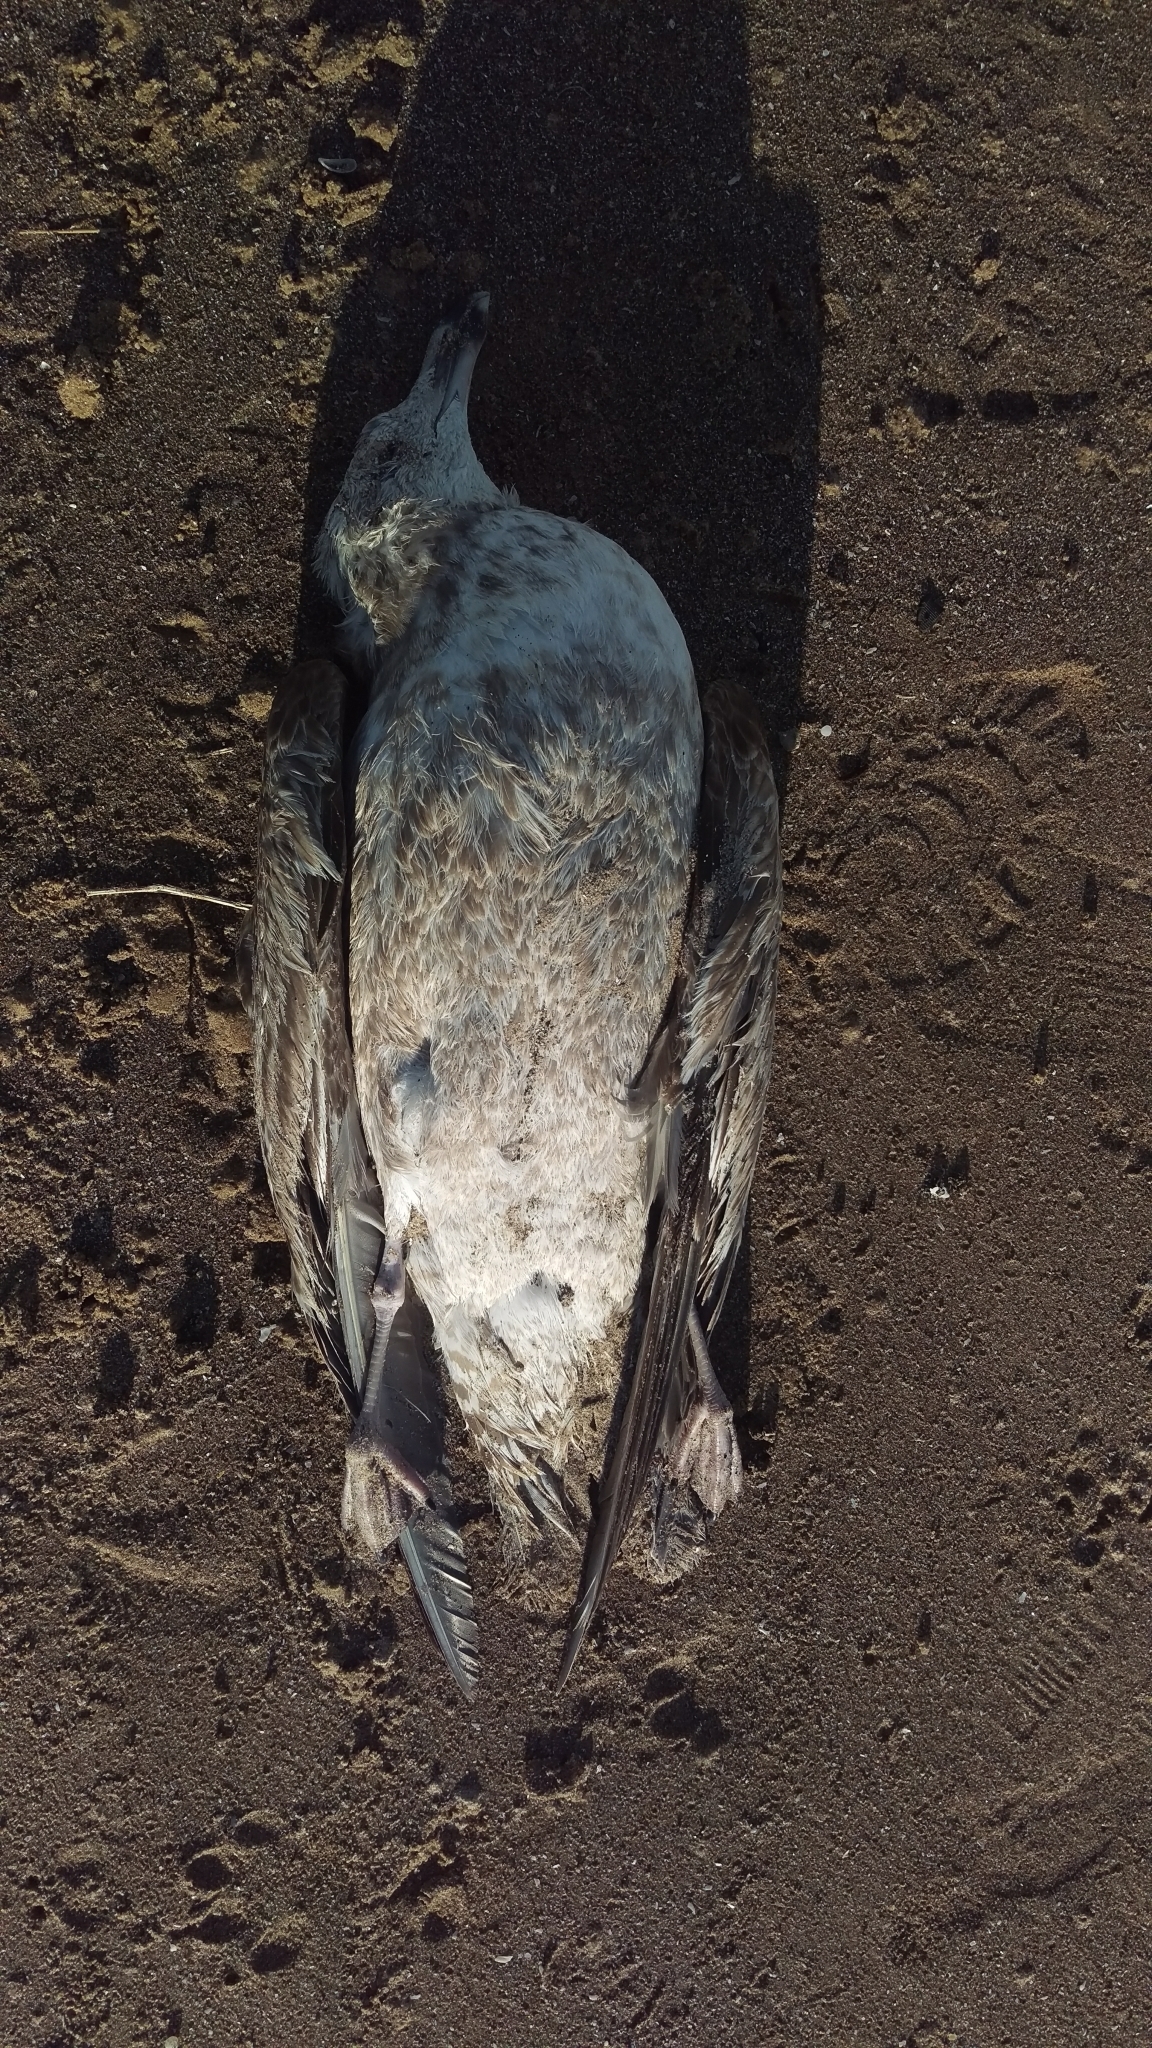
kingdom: Animalia
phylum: Chordata
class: Aves
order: Charadriiformes
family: Laridae
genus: Larus
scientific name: Larus argentatus
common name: Herring gull
